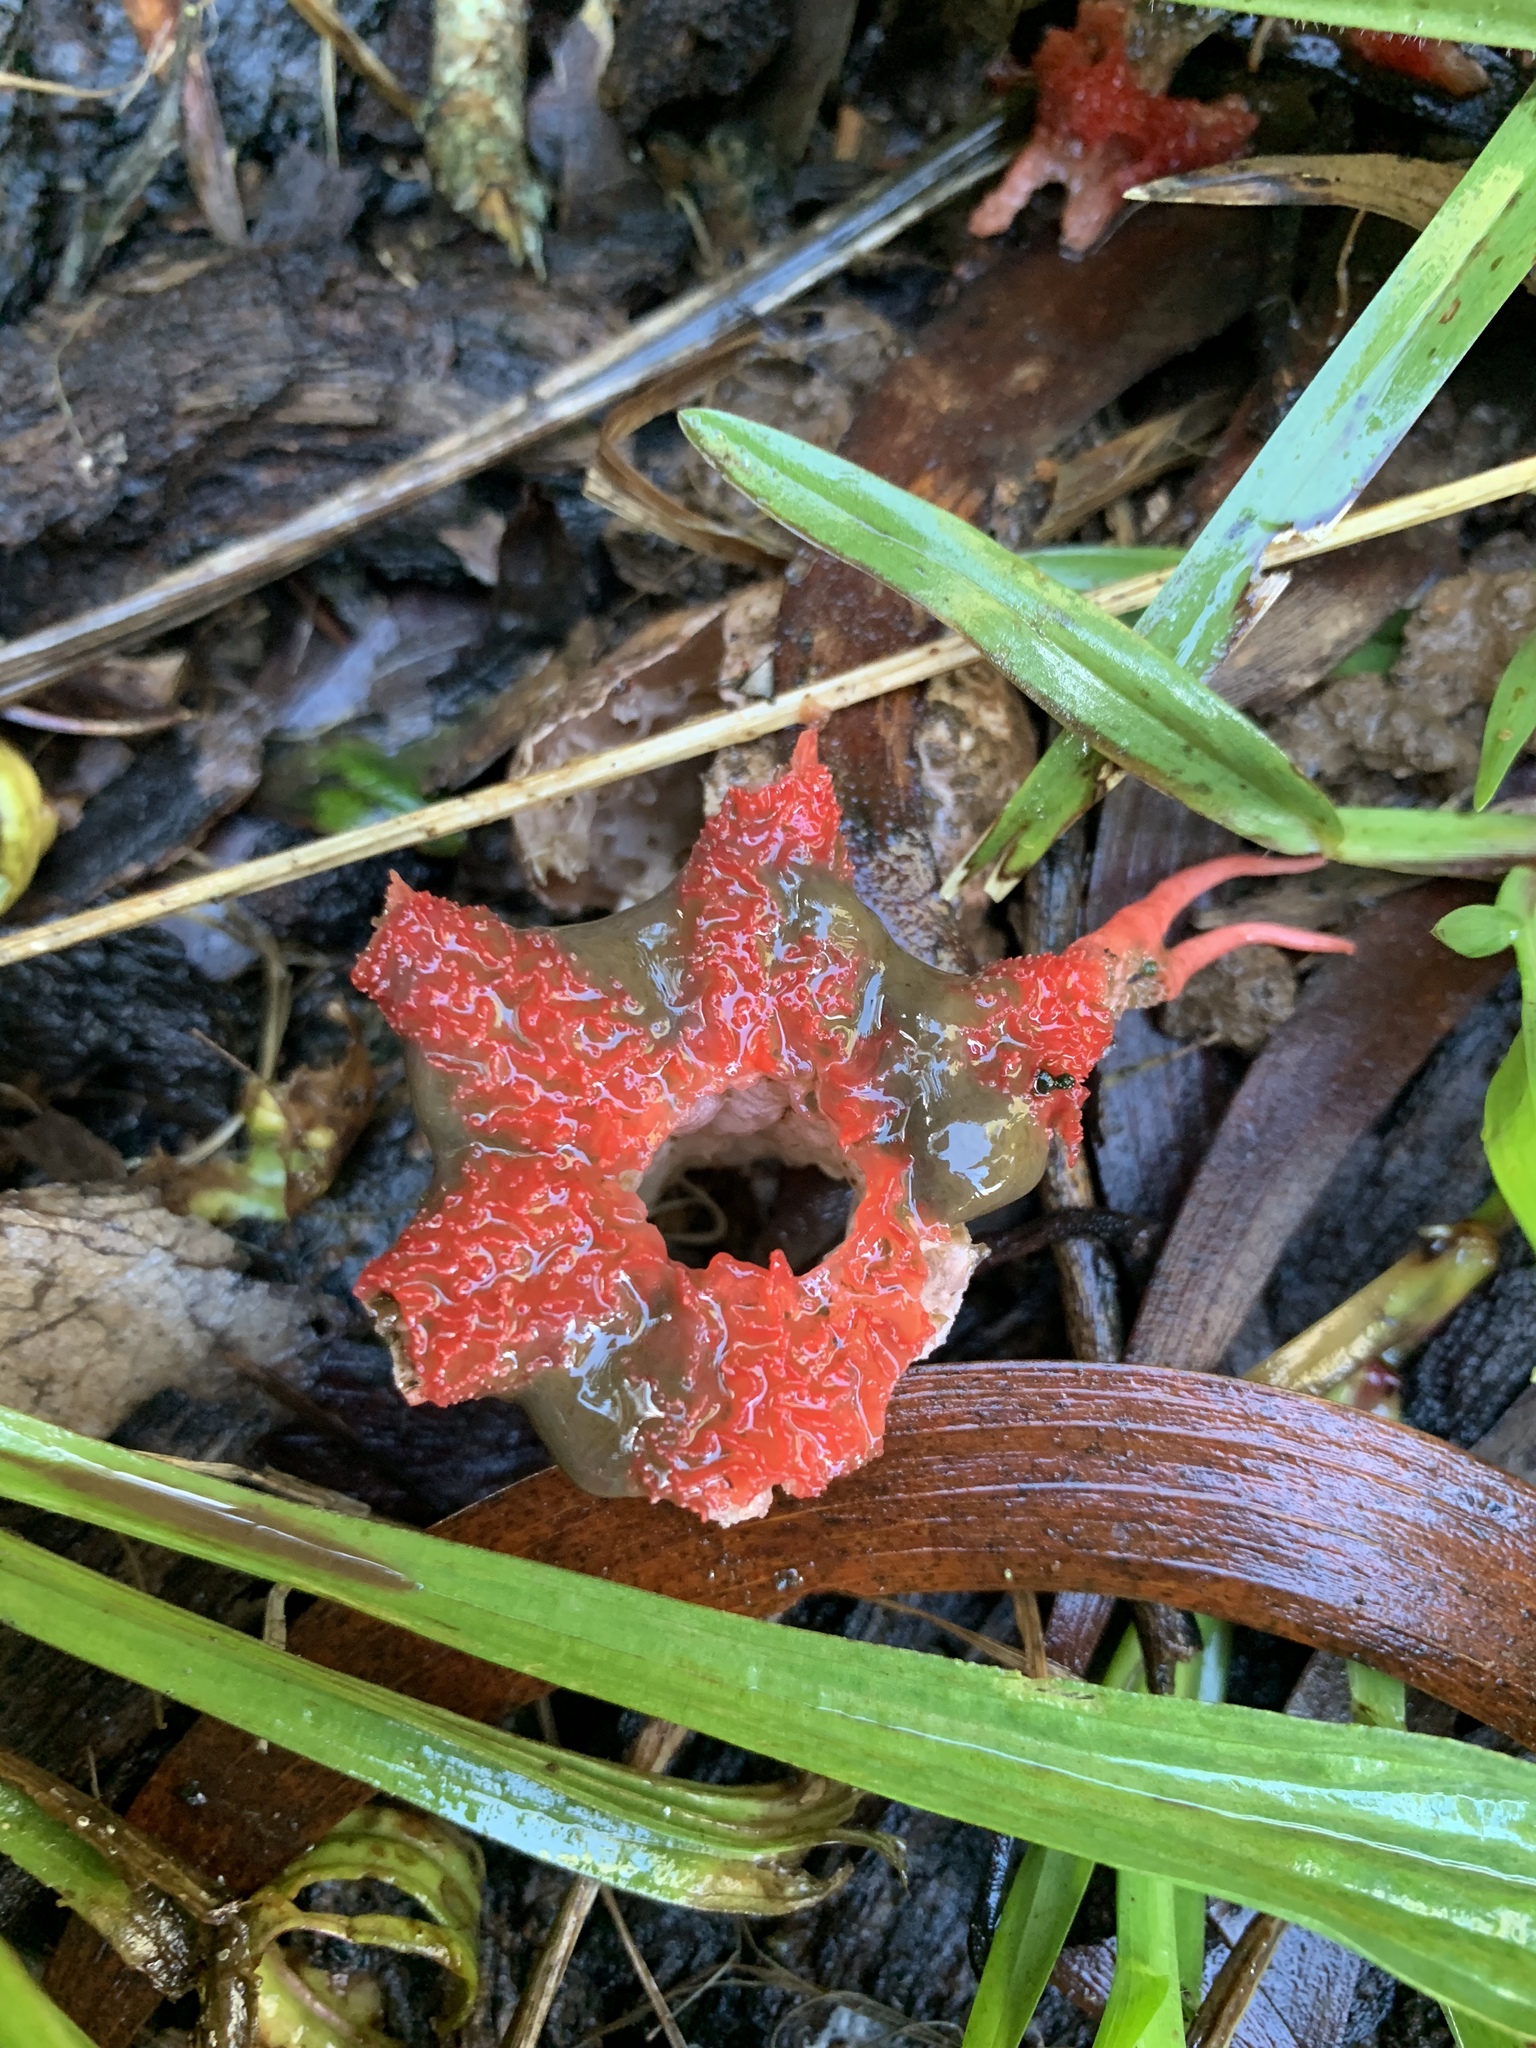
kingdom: Fungi
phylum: Basidiomycota
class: Agaricomycetes
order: Phallales
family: Phallaceae
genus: Aseroe
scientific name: Aseroe rubra
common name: Starfish fungus
